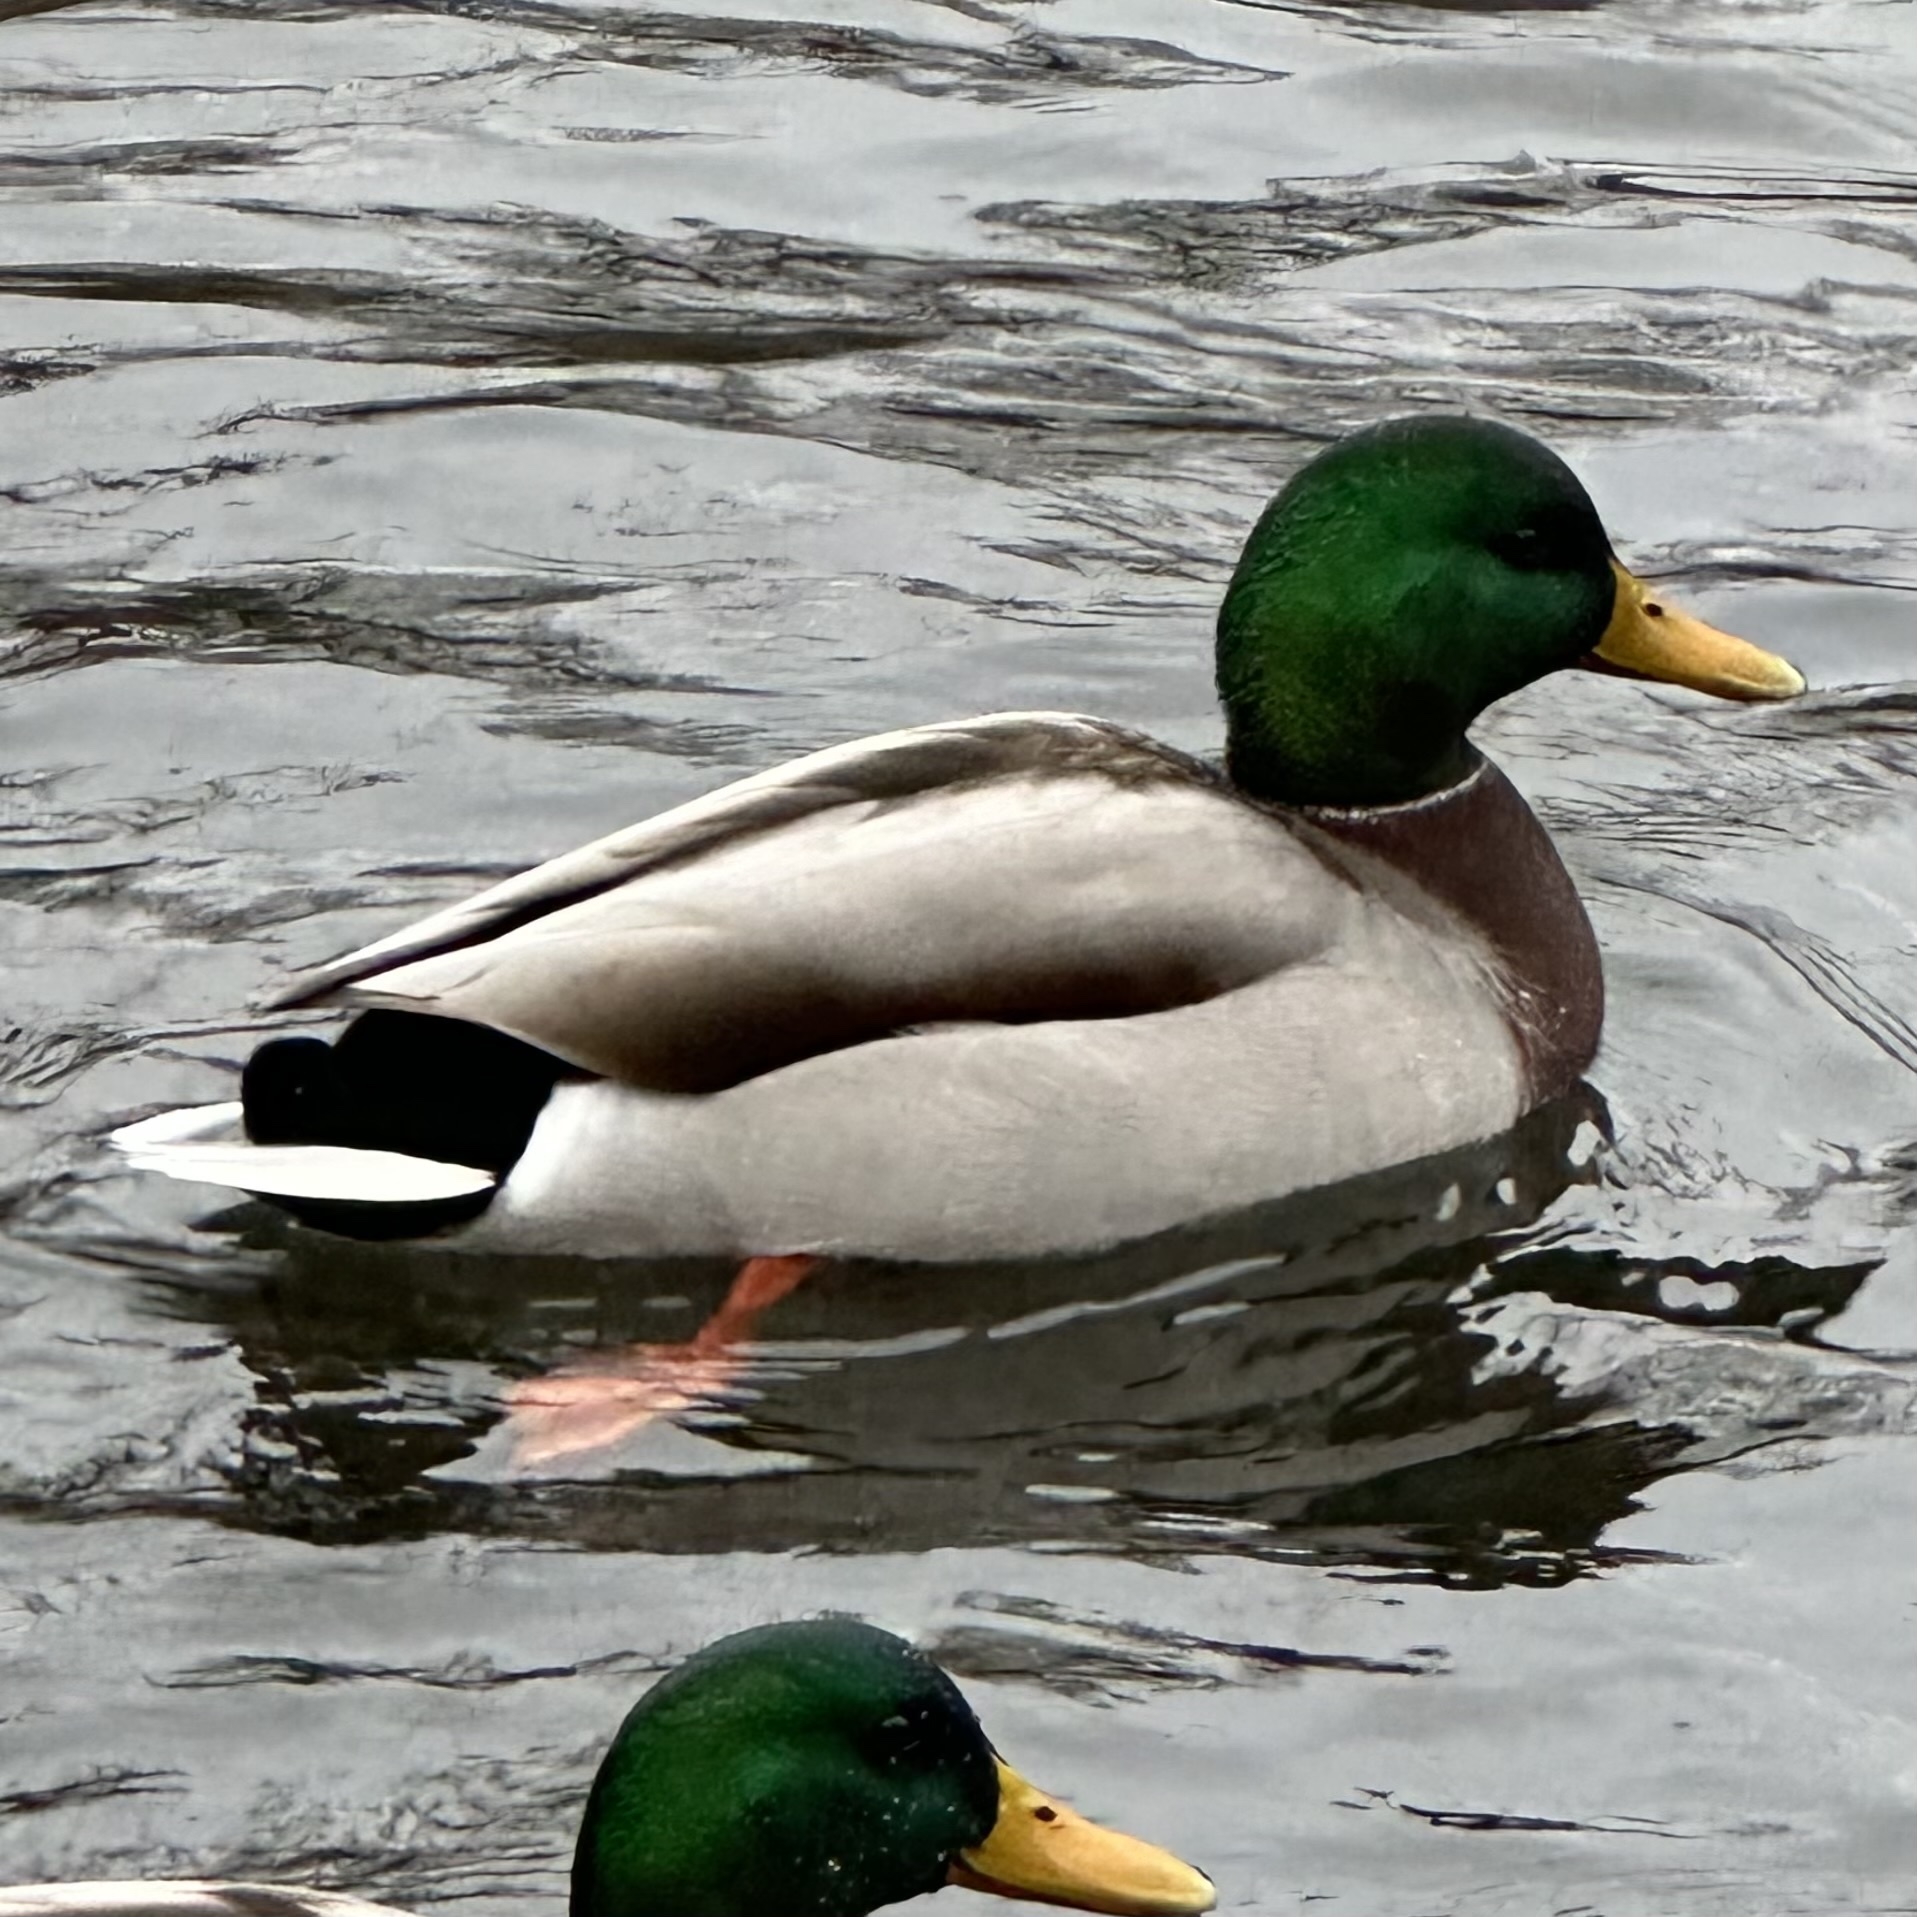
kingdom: Animalia
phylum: Chordata
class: Aves
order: Anseriformes
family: Anatidae
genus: Anas
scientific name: Anas platyrhynchos
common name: Mallard
